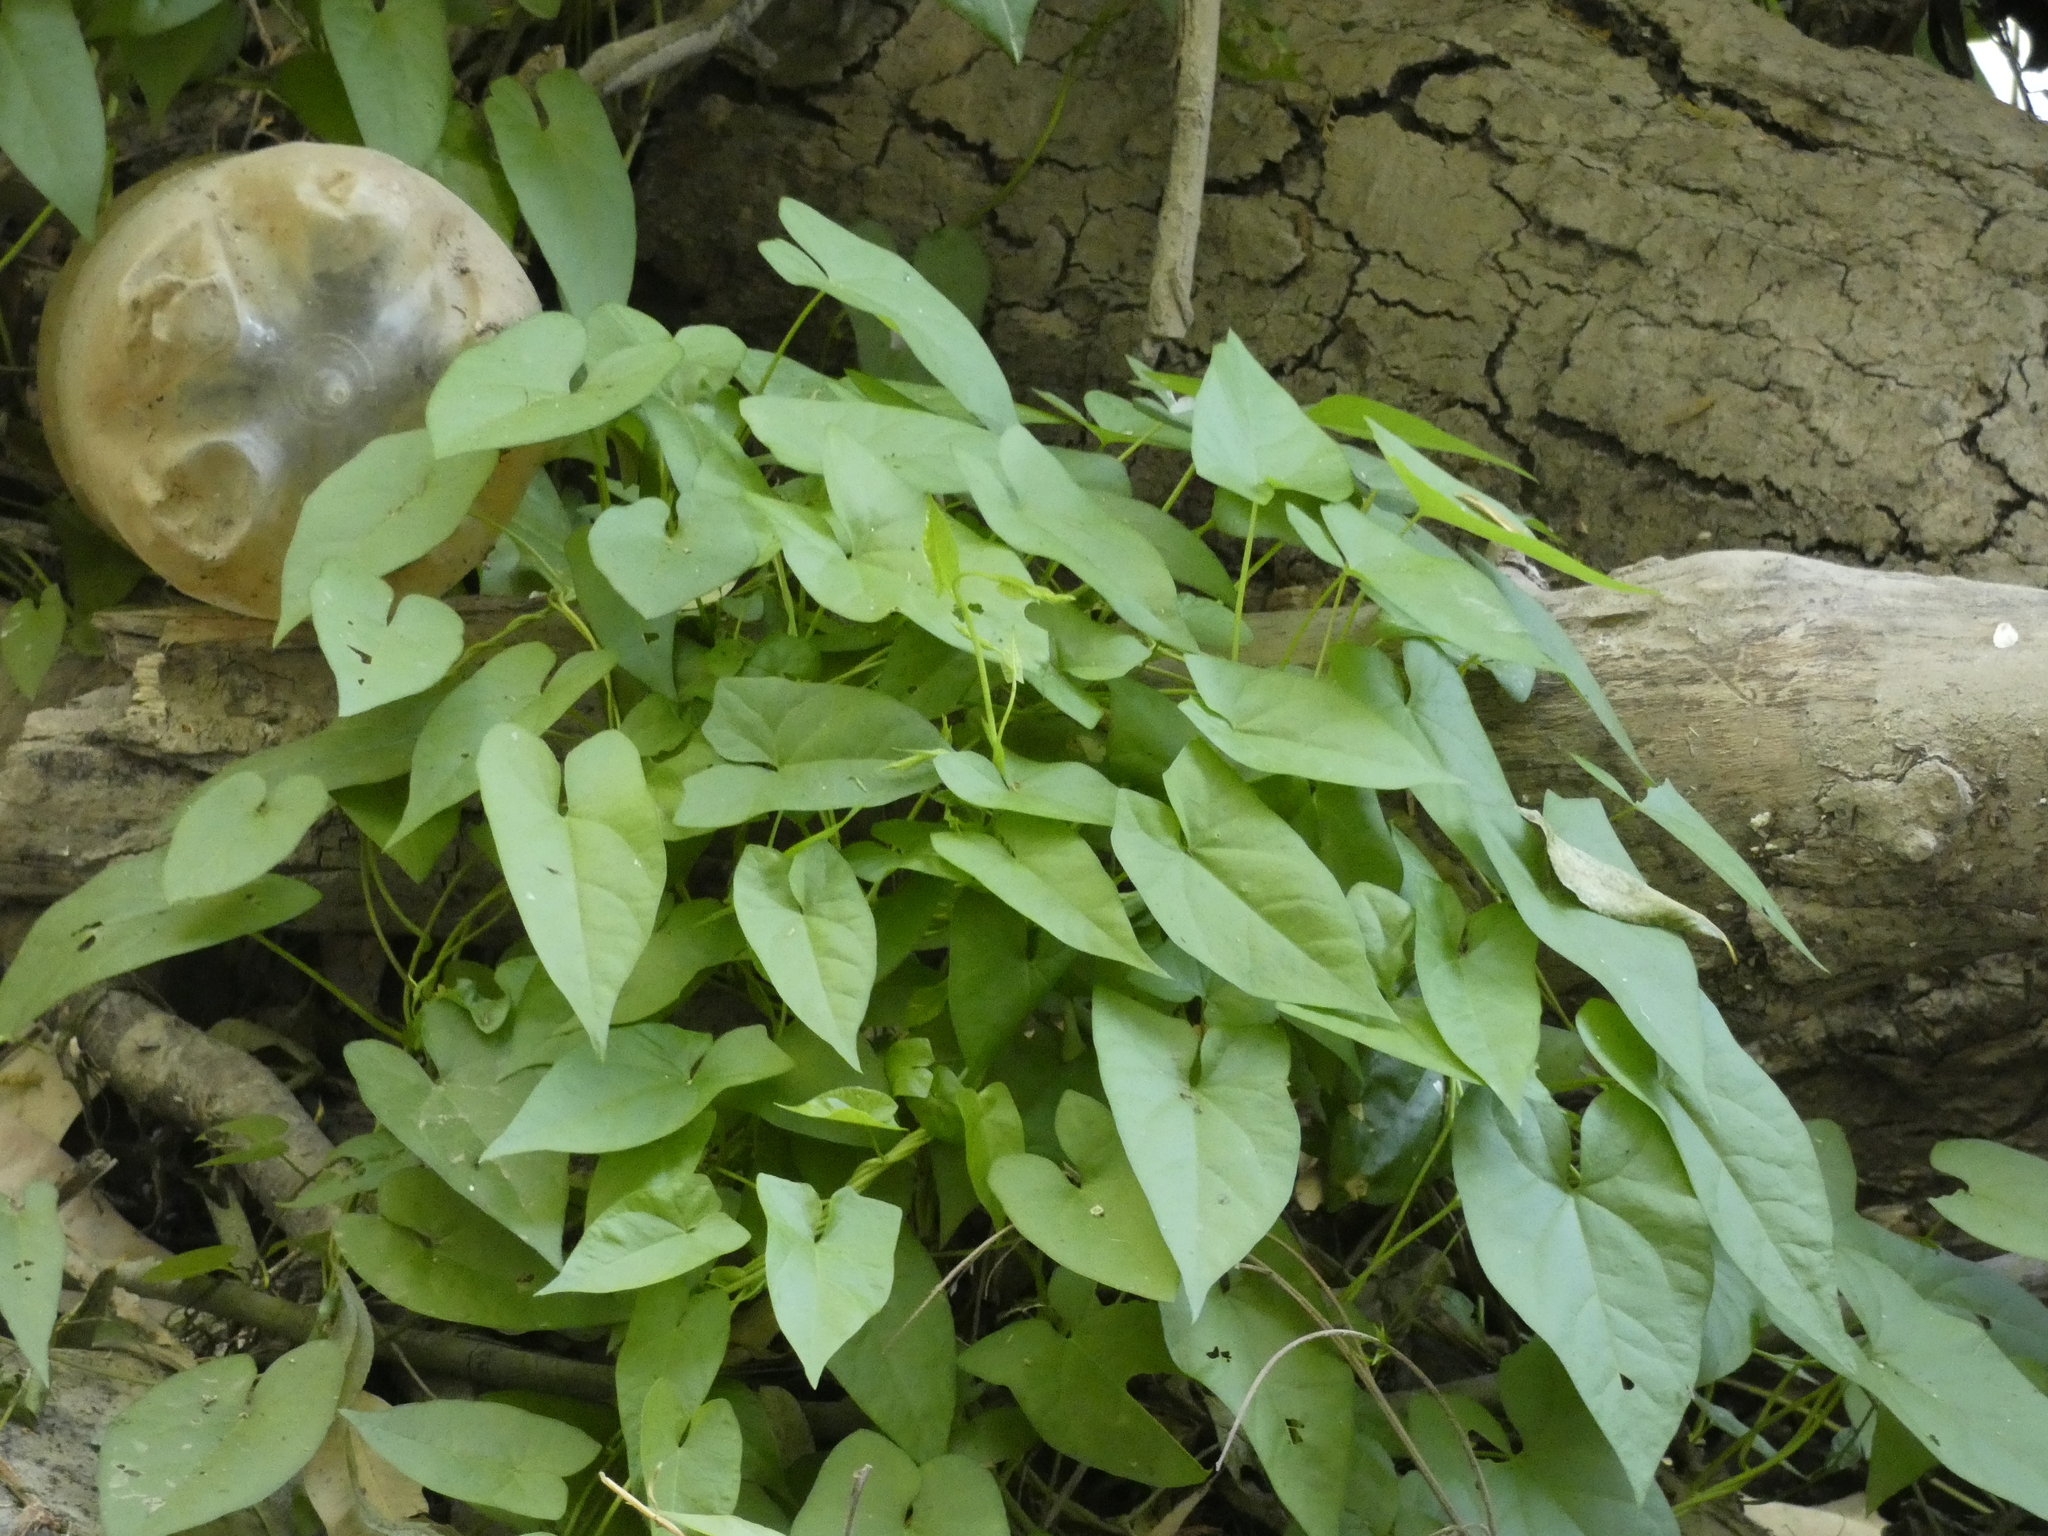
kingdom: Plantae
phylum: Tracheophyta
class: Magnoliopsida
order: Solanales
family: Convolvulaceae
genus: Calystegia
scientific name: Calystegia sepium
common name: Hedge bindweed
